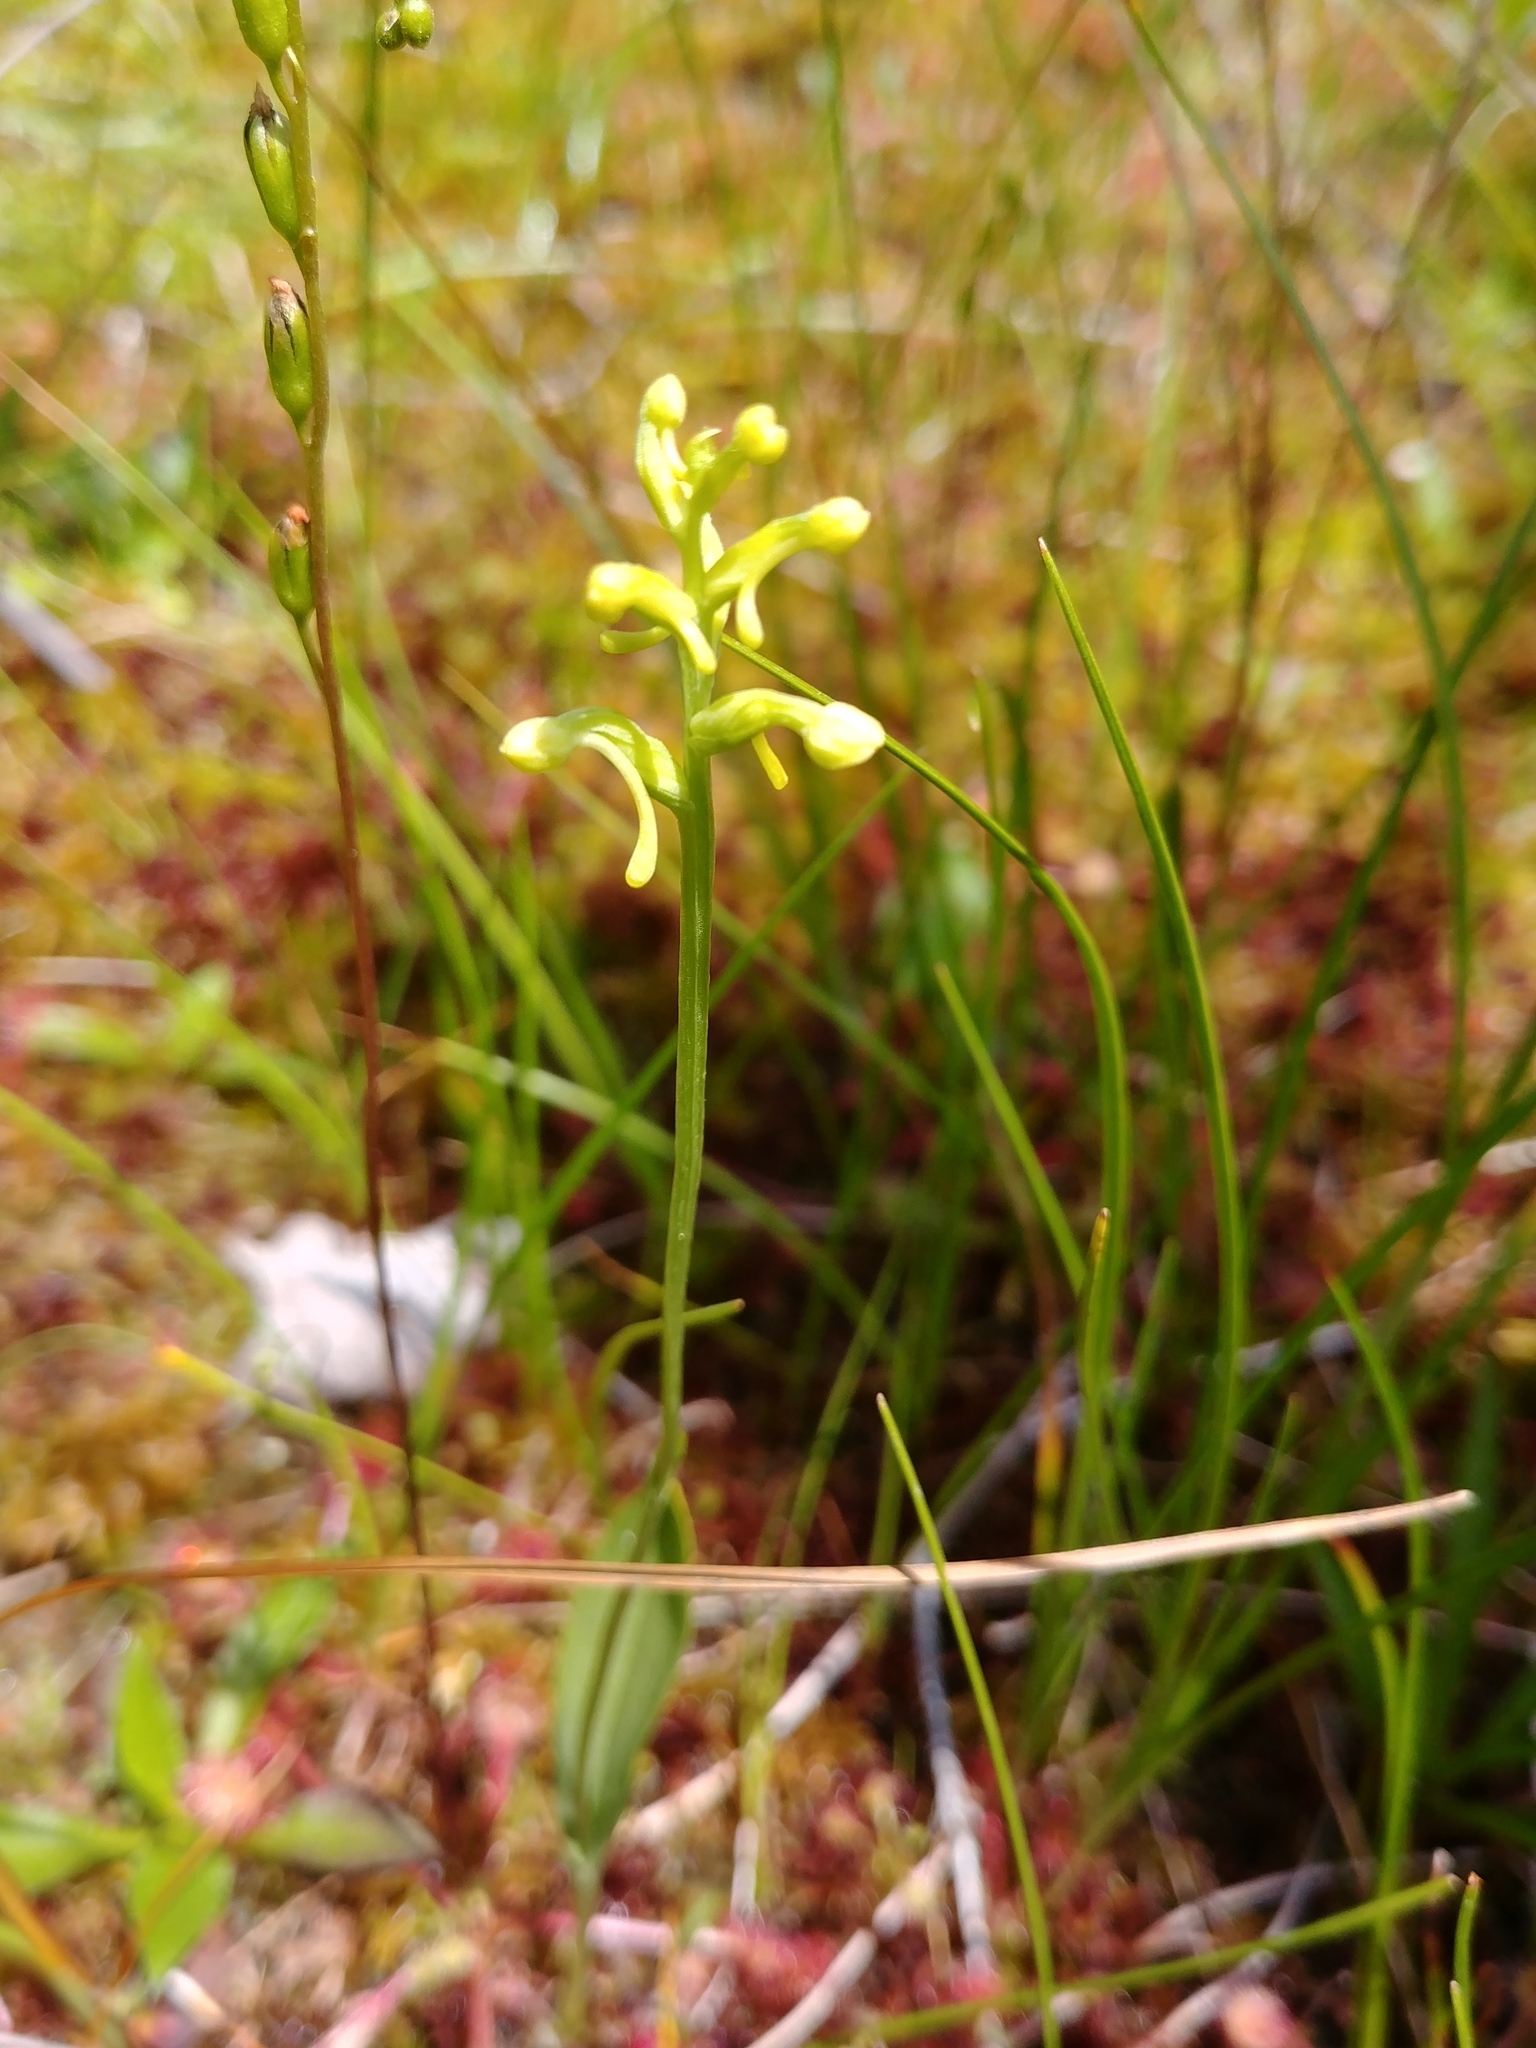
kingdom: Plantae
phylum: Tracheophyta
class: Liliopsida
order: Asparagales
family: Orchidaceae
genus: Platanthera
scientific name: Platanthera clavellata
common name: Club-spur orchid
